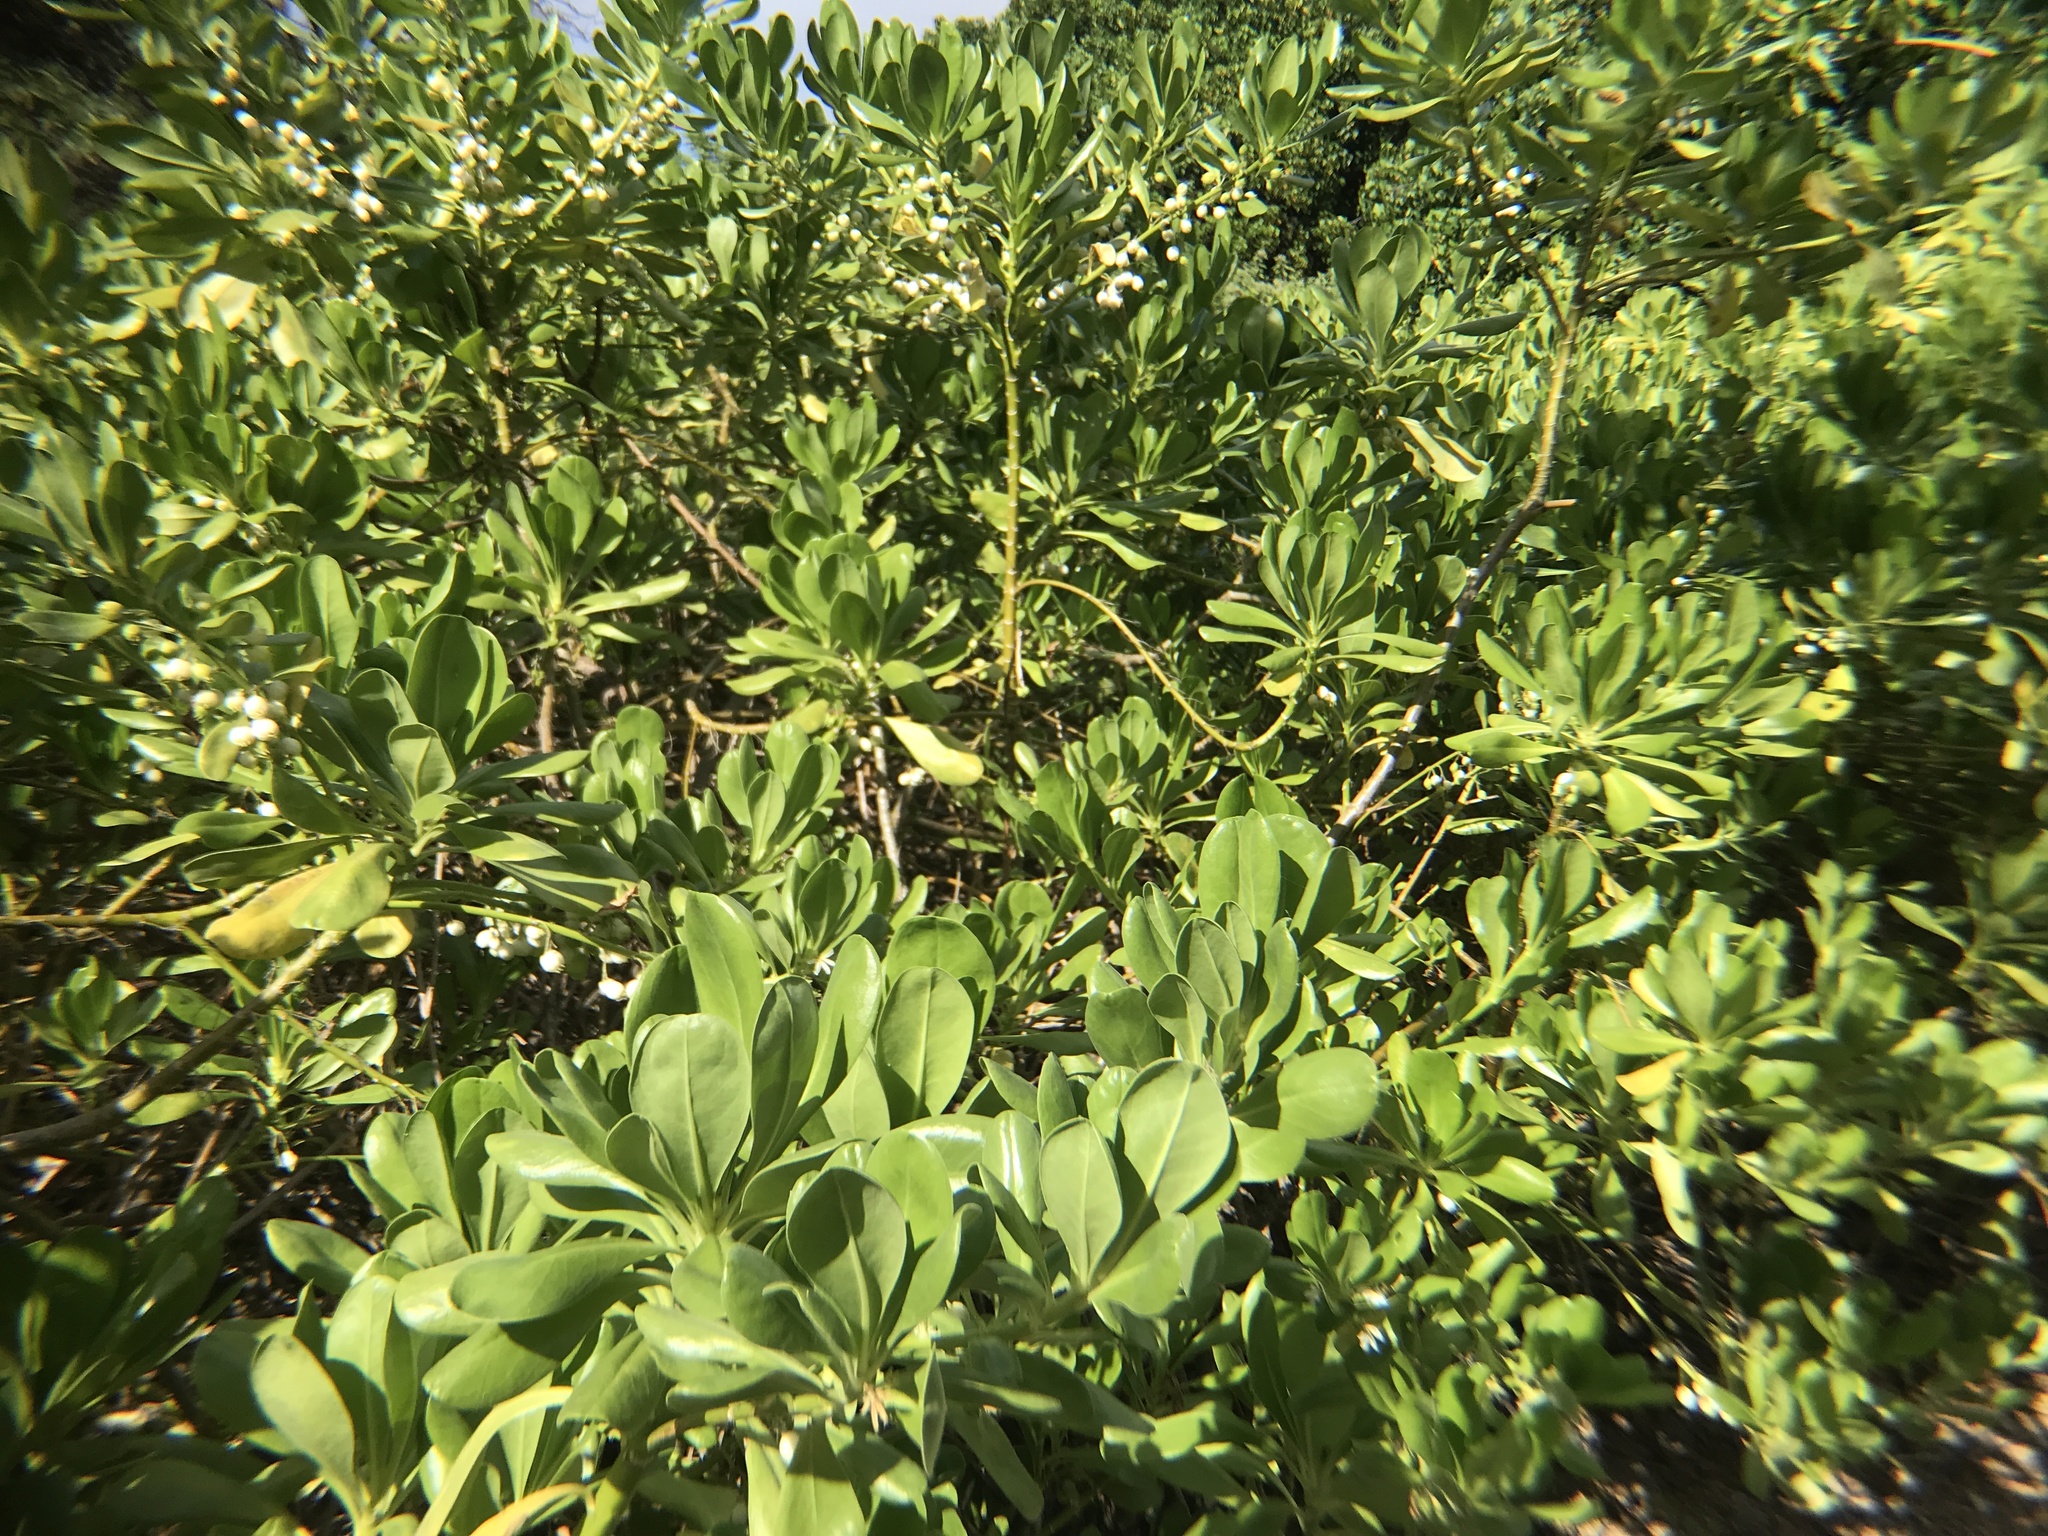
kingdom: Plantae
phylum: Tracheophyta
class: Magnoliopsida
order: Asterales
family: Goodeniaceae
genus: Scaevola
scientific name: Scaevola taccada
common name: Sea lettucetree
